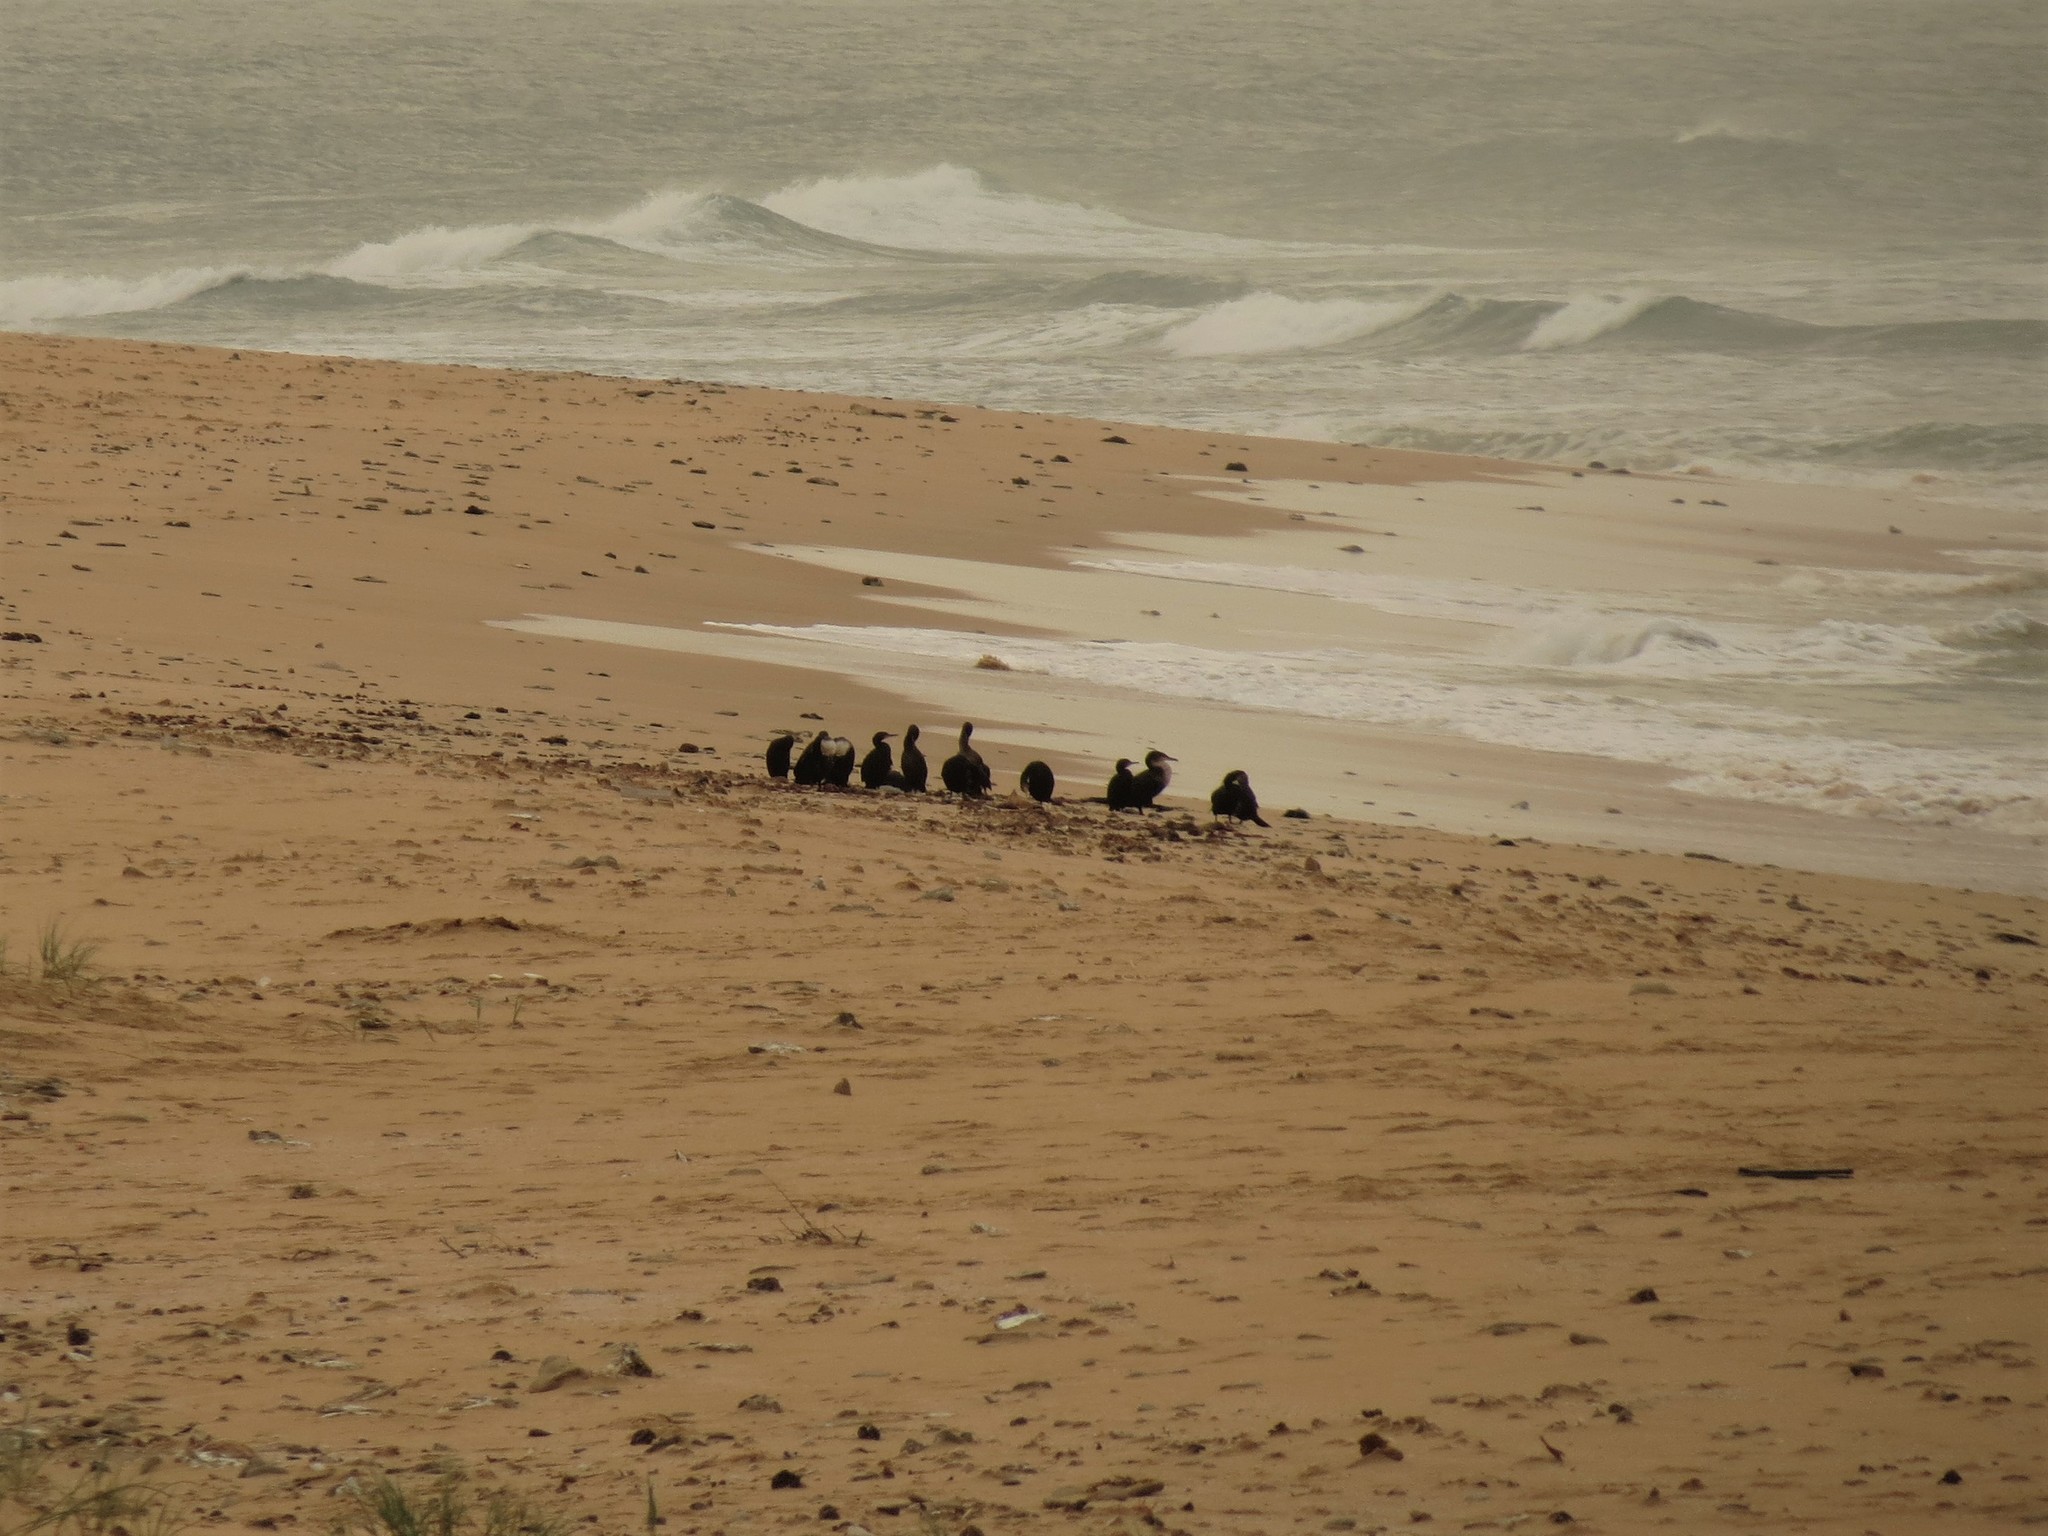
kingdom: Animalia
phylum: Chordata
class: Aves
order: Suliformes
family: Phalacrocoracidae
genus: Phalacrocorax
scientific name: Phalacrocorax carbo
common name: Great cormorant
